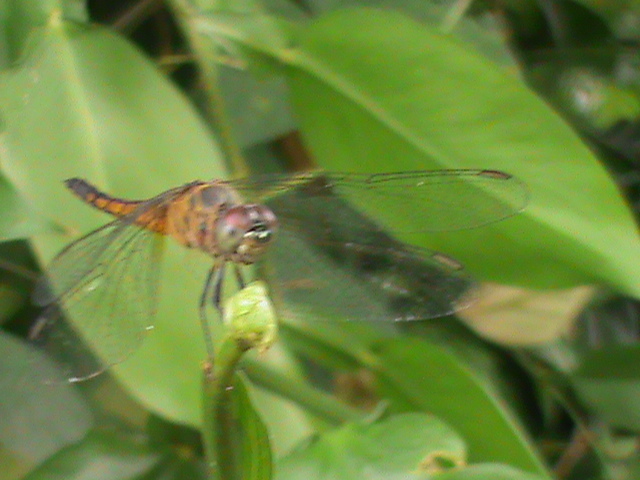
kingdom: Animalia
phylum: Arthropoda
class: Insecta
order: Odonata
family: Libellulidae
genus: Brachydiplax
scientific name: Brachydiplax chalybea
